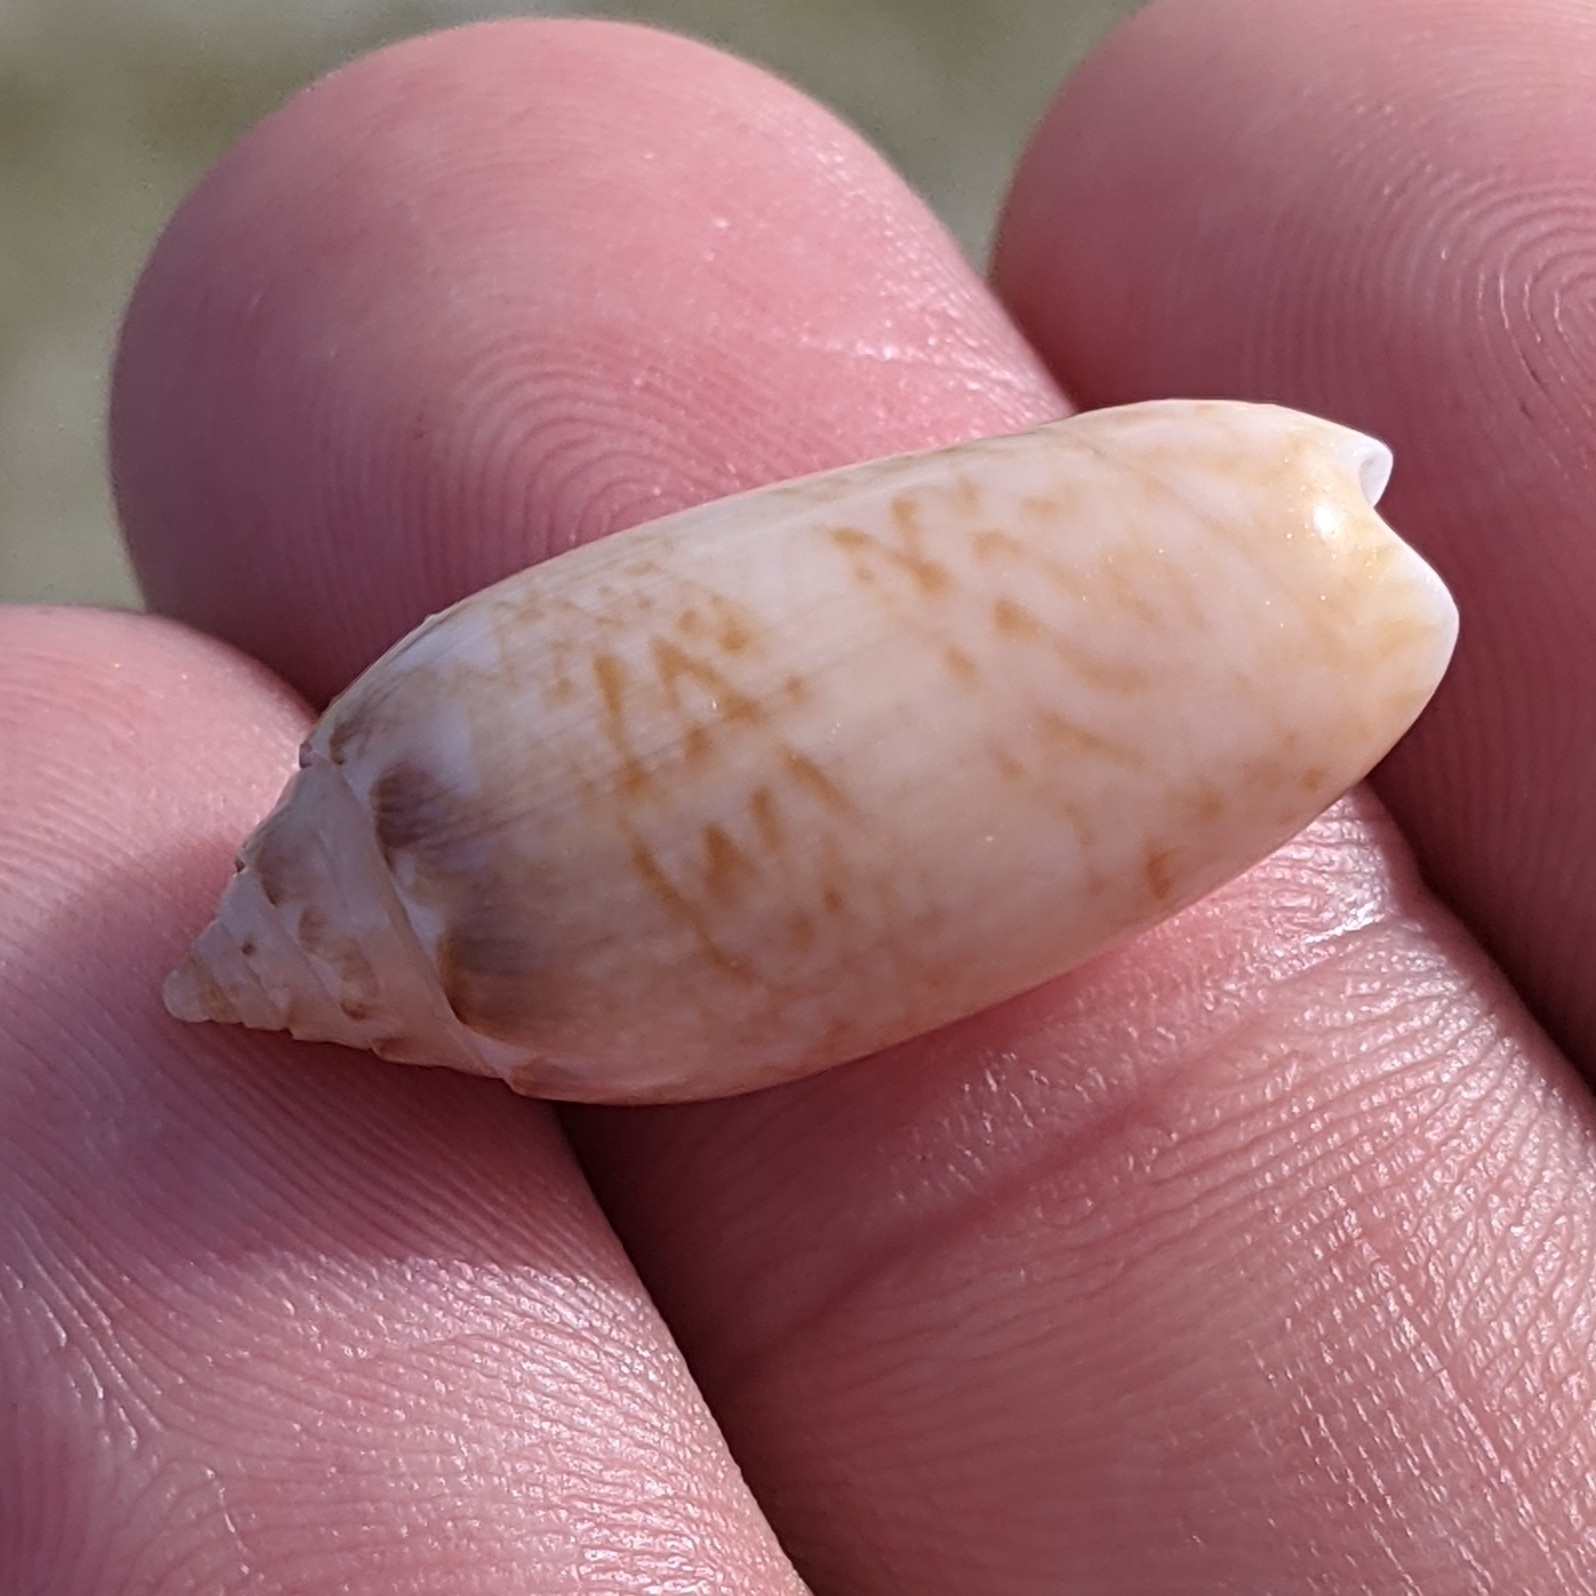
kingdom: Animalia
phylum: Mollusca
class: Gastropoda
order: Neogastropoda
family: Olividae
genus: Oliva
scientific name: Oliva sayana
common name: Lettered olive
